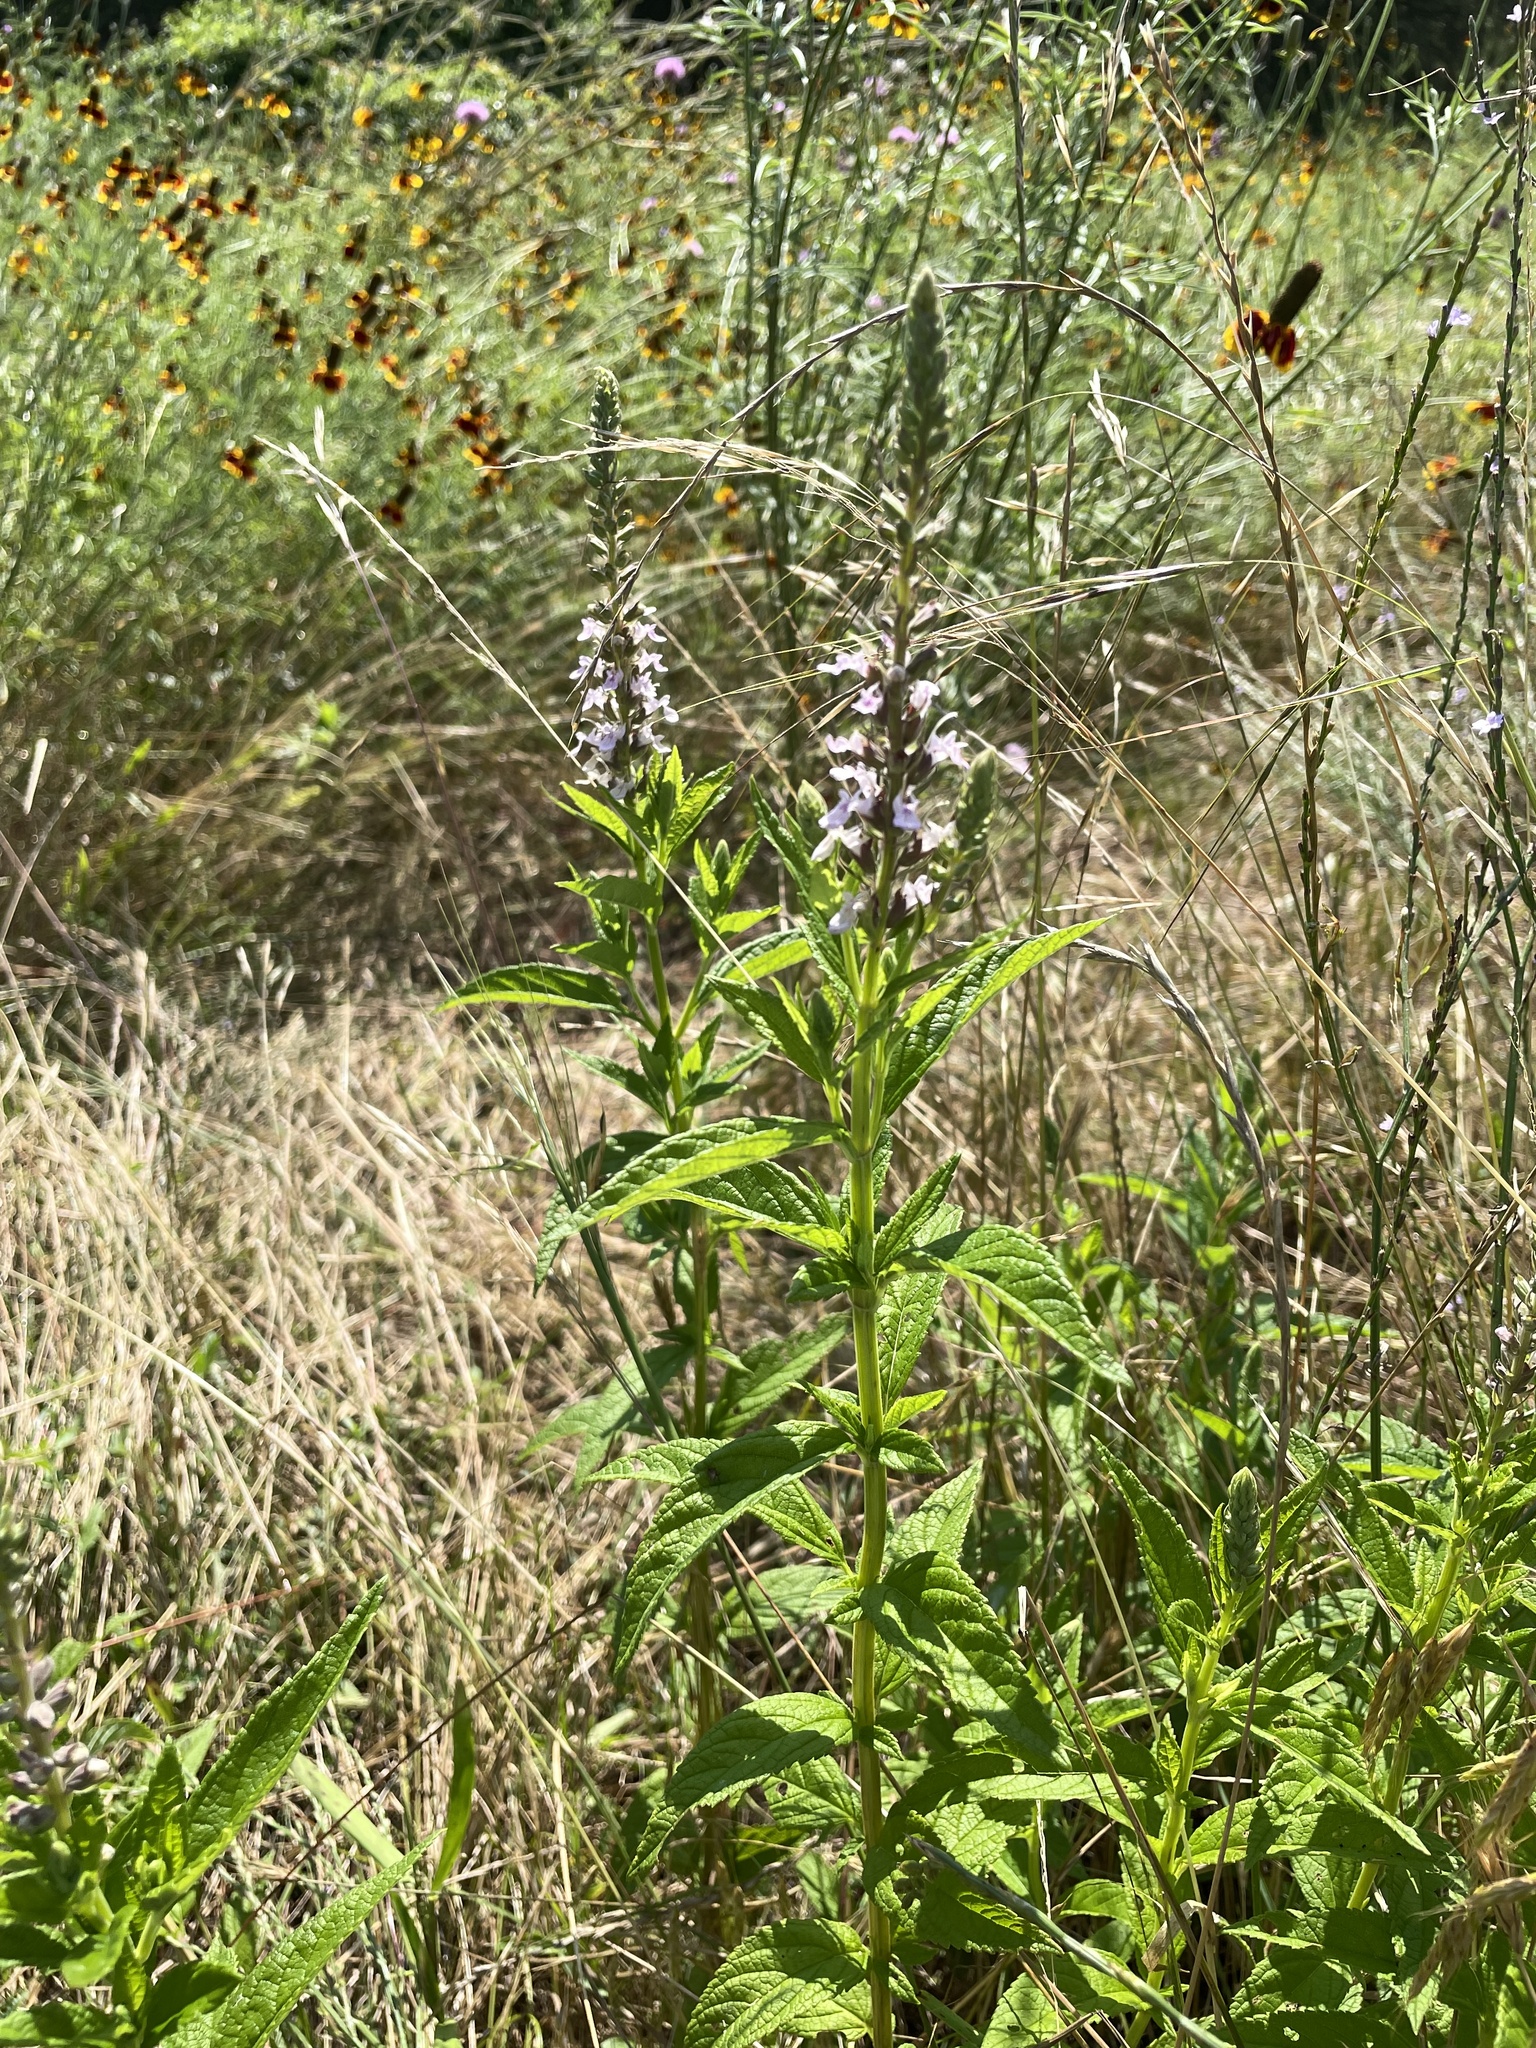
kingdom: Plantae
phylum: Tracheophyta
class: Magnoliopsida
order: Lamiales
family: Lamiaceae
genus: Teucrium
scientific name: Teucrium canadense
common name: American germander
